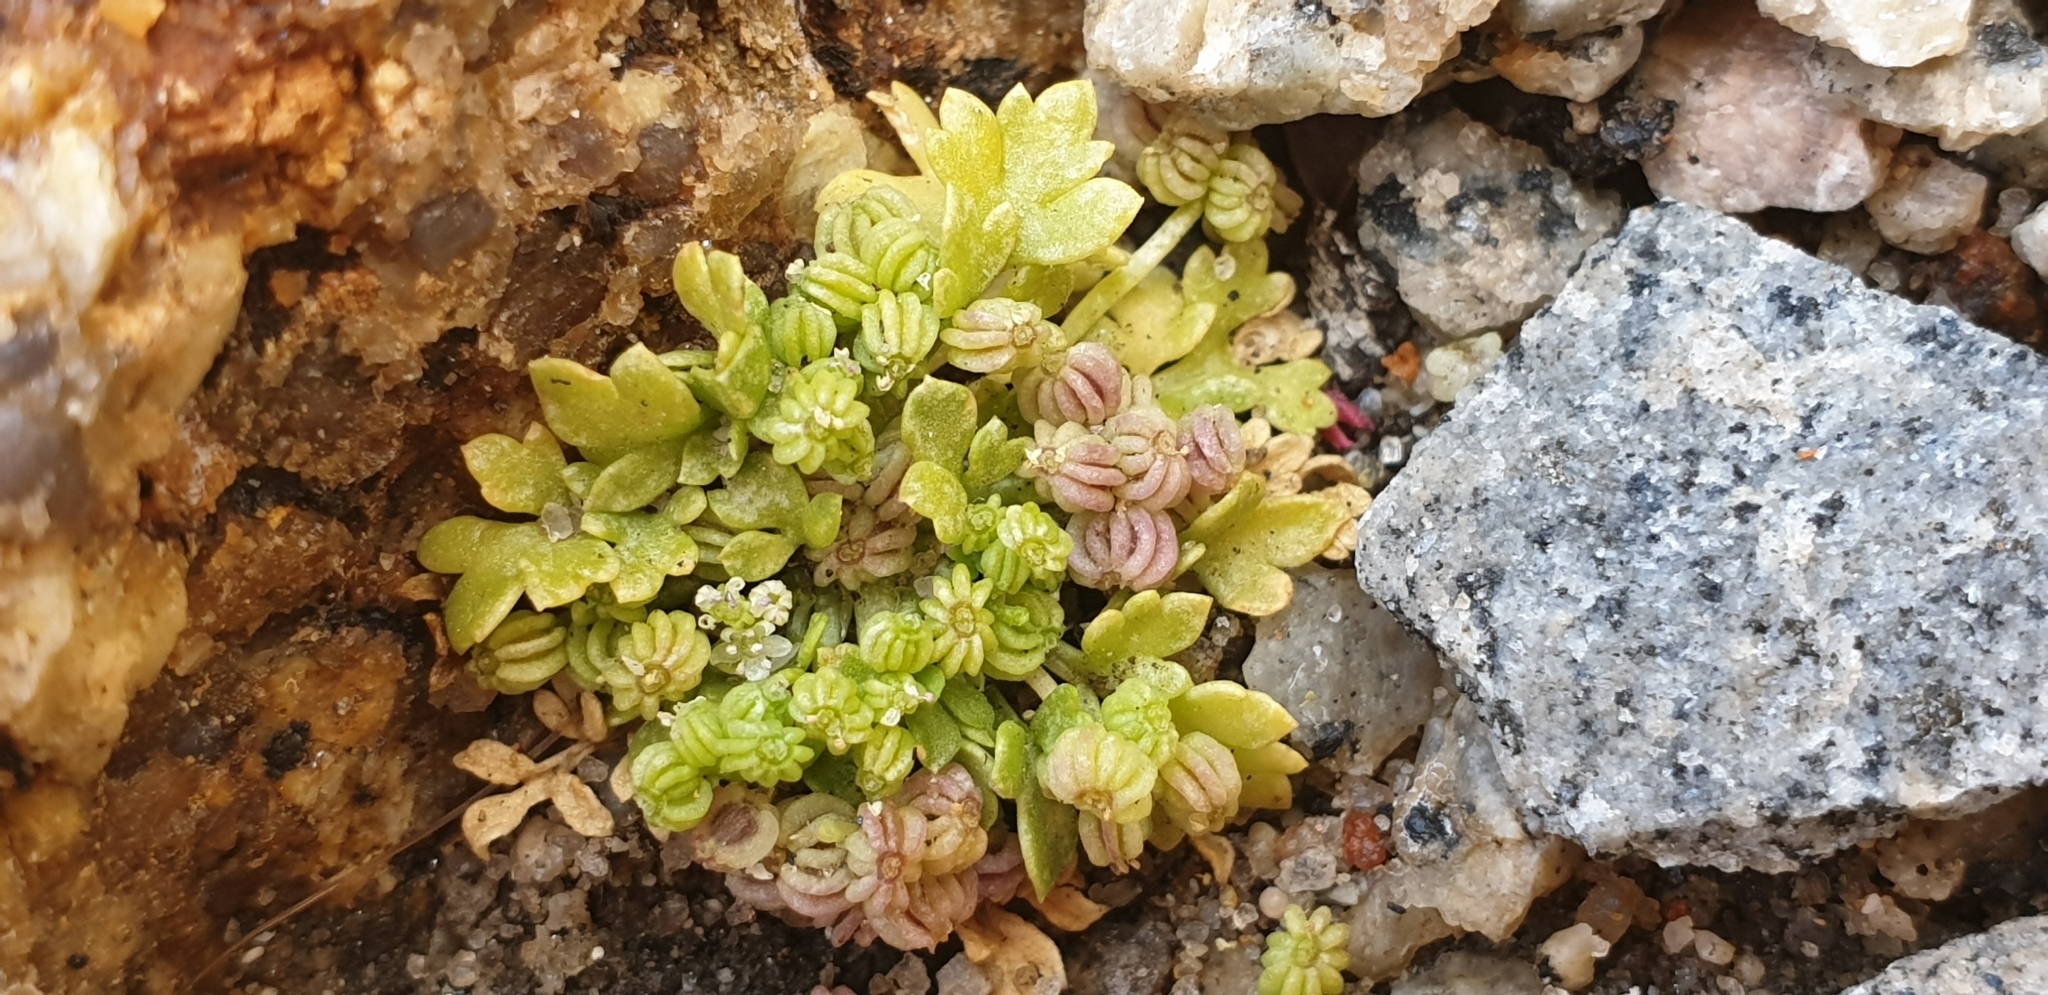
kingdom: Plantae
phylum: Tracheophyta
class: Magnoliopsida
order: Apiales
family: Apiaceae
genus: Apium
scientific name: Apium prostratum
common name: Prostrate marshwort
